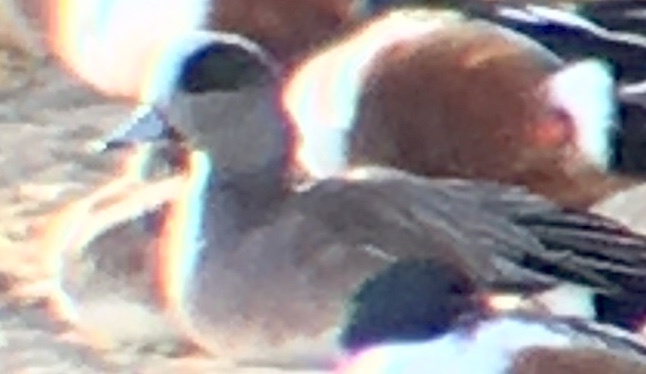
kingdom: Animalia
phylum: Chordata
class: Aves
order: Anseriformes
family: Anatidae
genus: Mareca
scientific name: Mareca americana
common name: American wigeon
